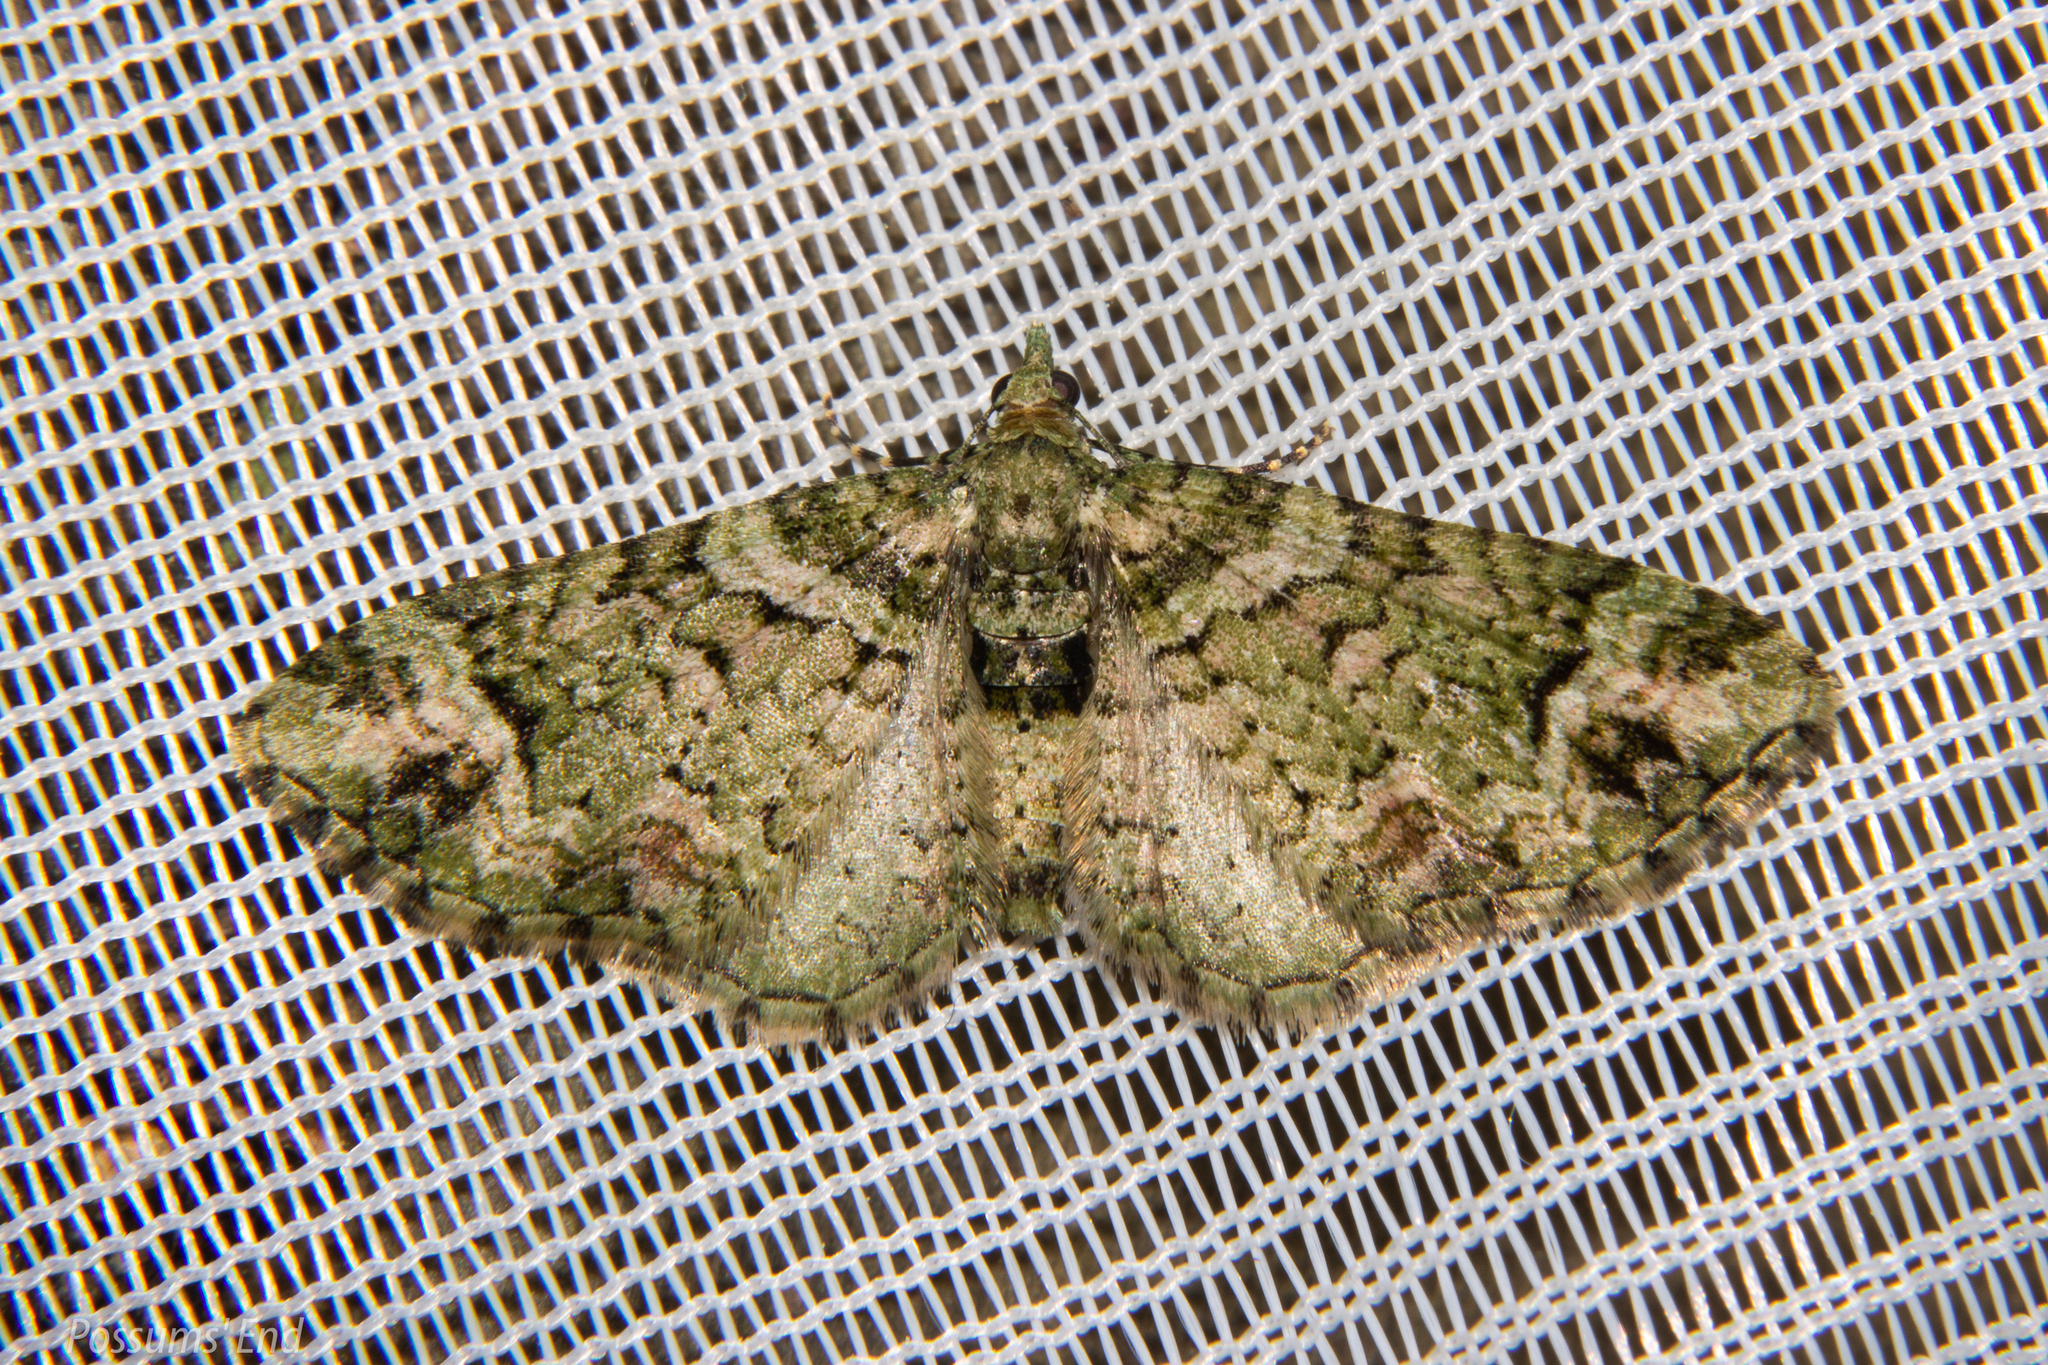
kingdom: Animalia
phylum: Arthropoda
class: Insecta
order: Lepidoptera
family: Geometridae
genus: Pasiphila
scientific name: Pasiphila urticae
